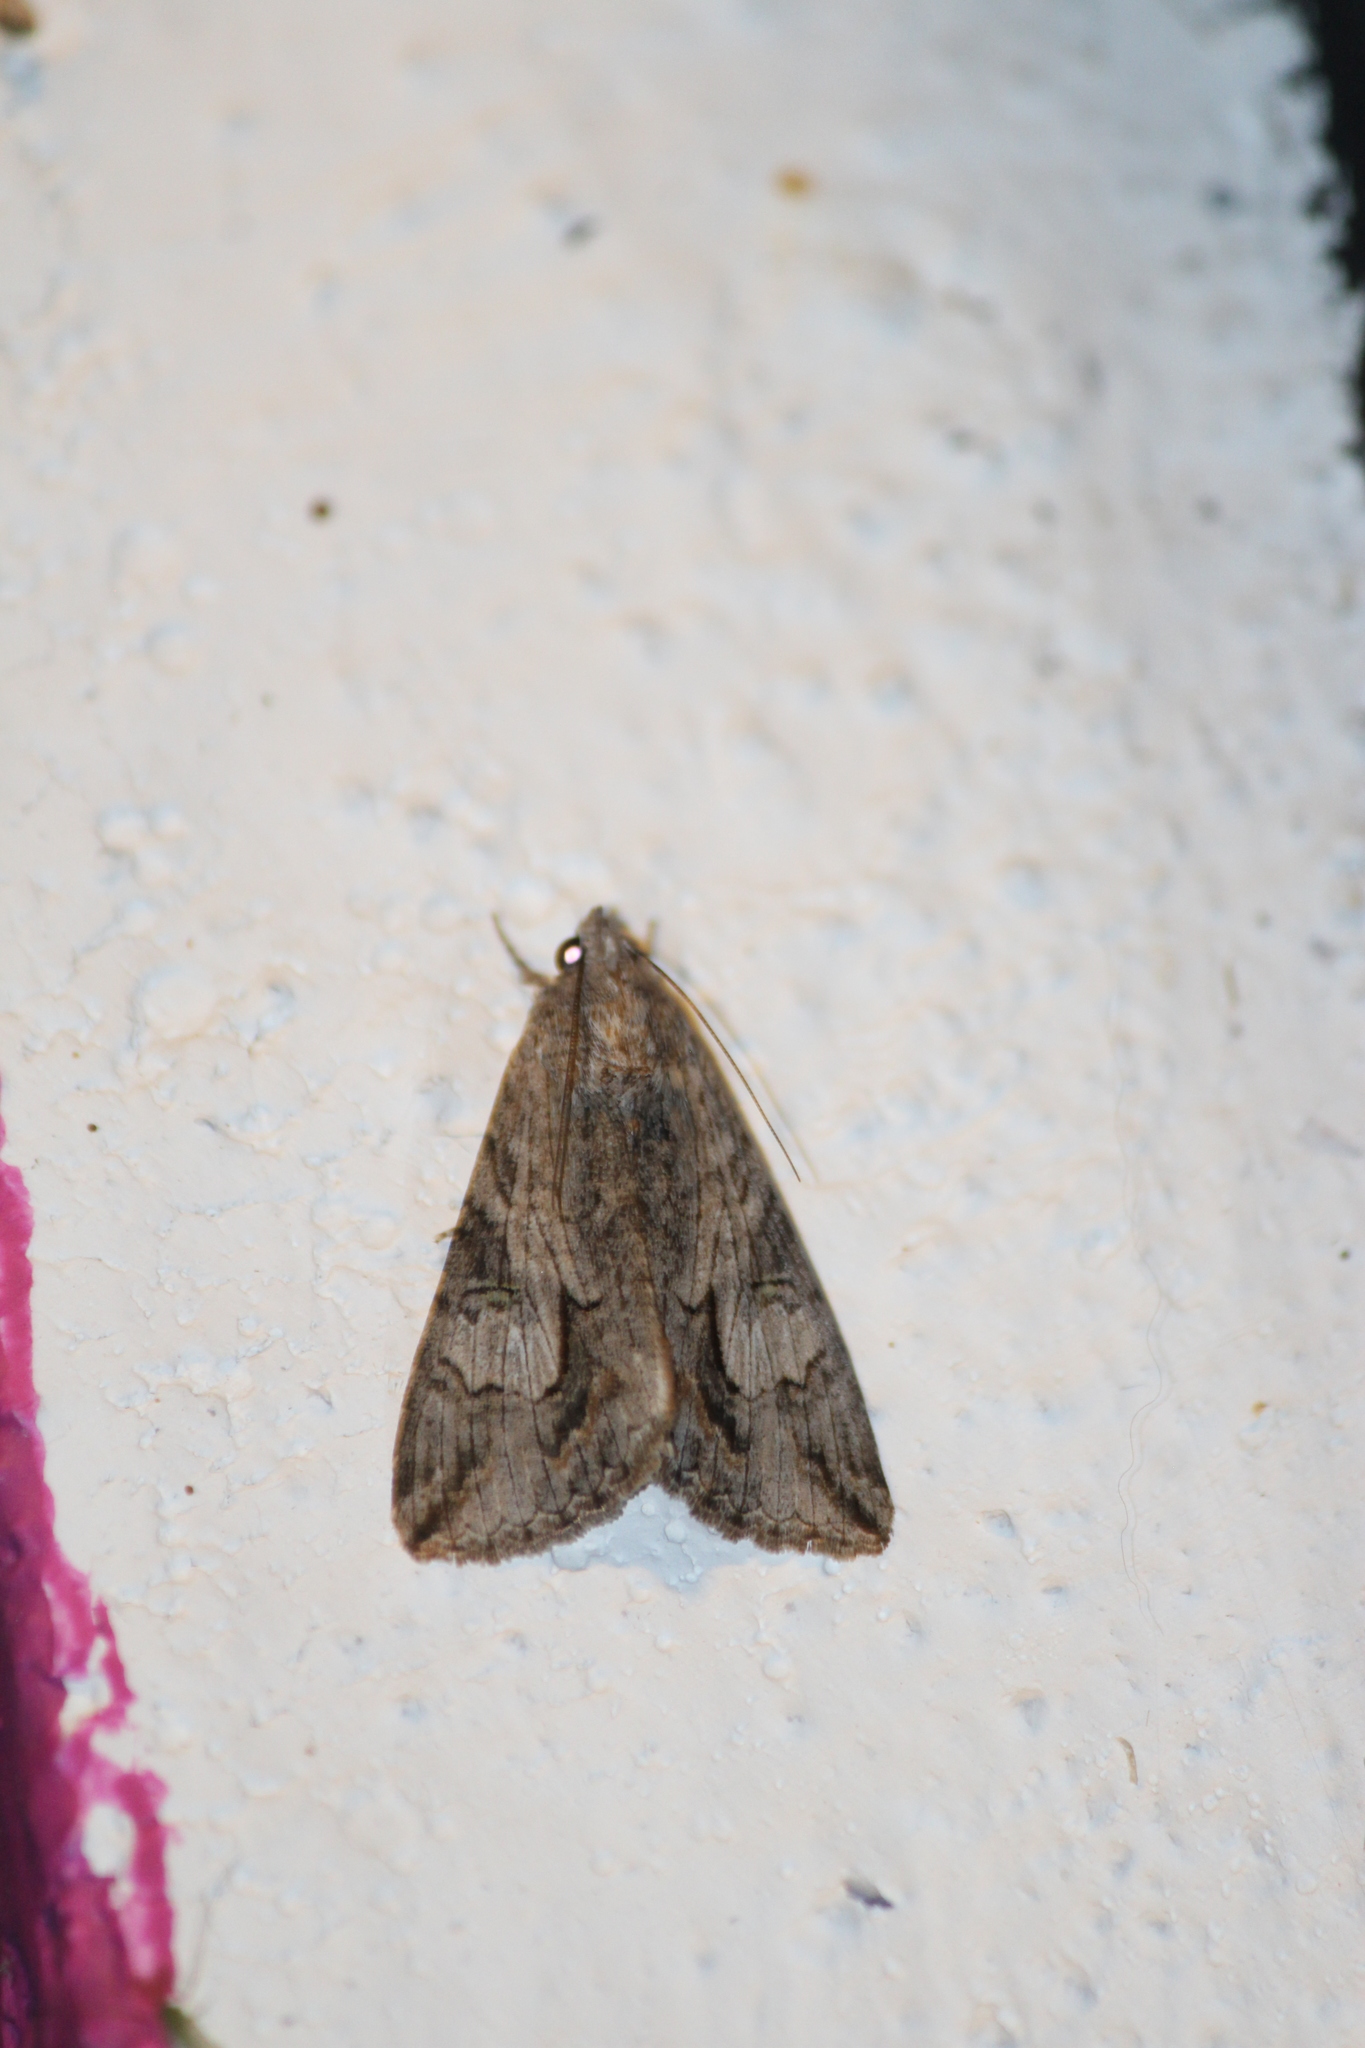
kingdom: Animalia
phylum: Arthropoda
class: Insecta
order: Lepidoptera
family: Erebidae
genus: Melipotis
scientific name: Melipotis jucunda
